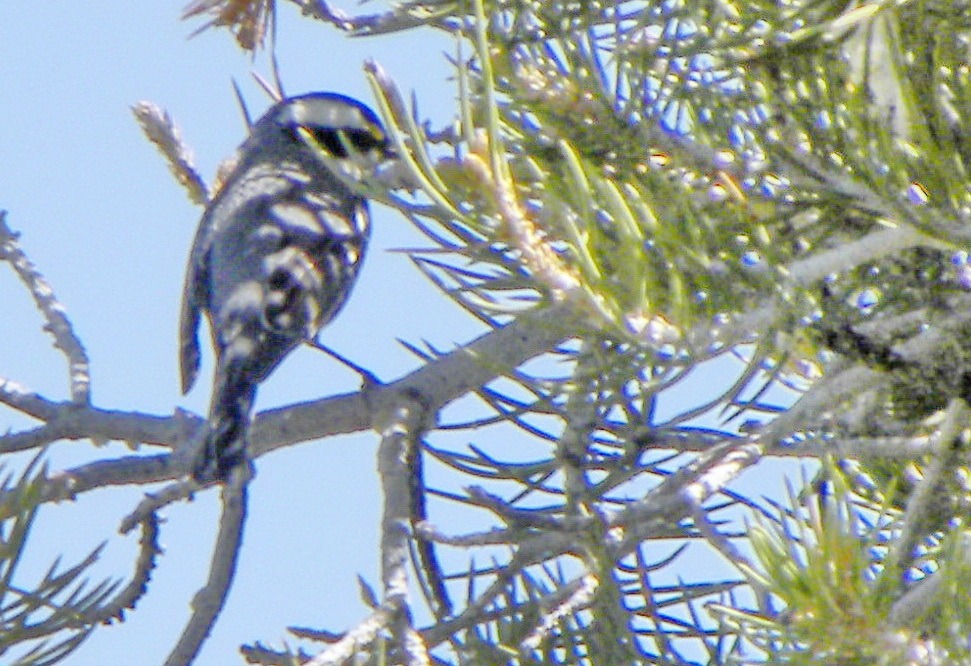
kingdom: Animalia
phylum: Chordata
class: Aves
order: Passeriformes
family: Parulidae
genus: Setophaga
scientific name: Setophaga nigrescens
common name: Black-throated gray warbler
